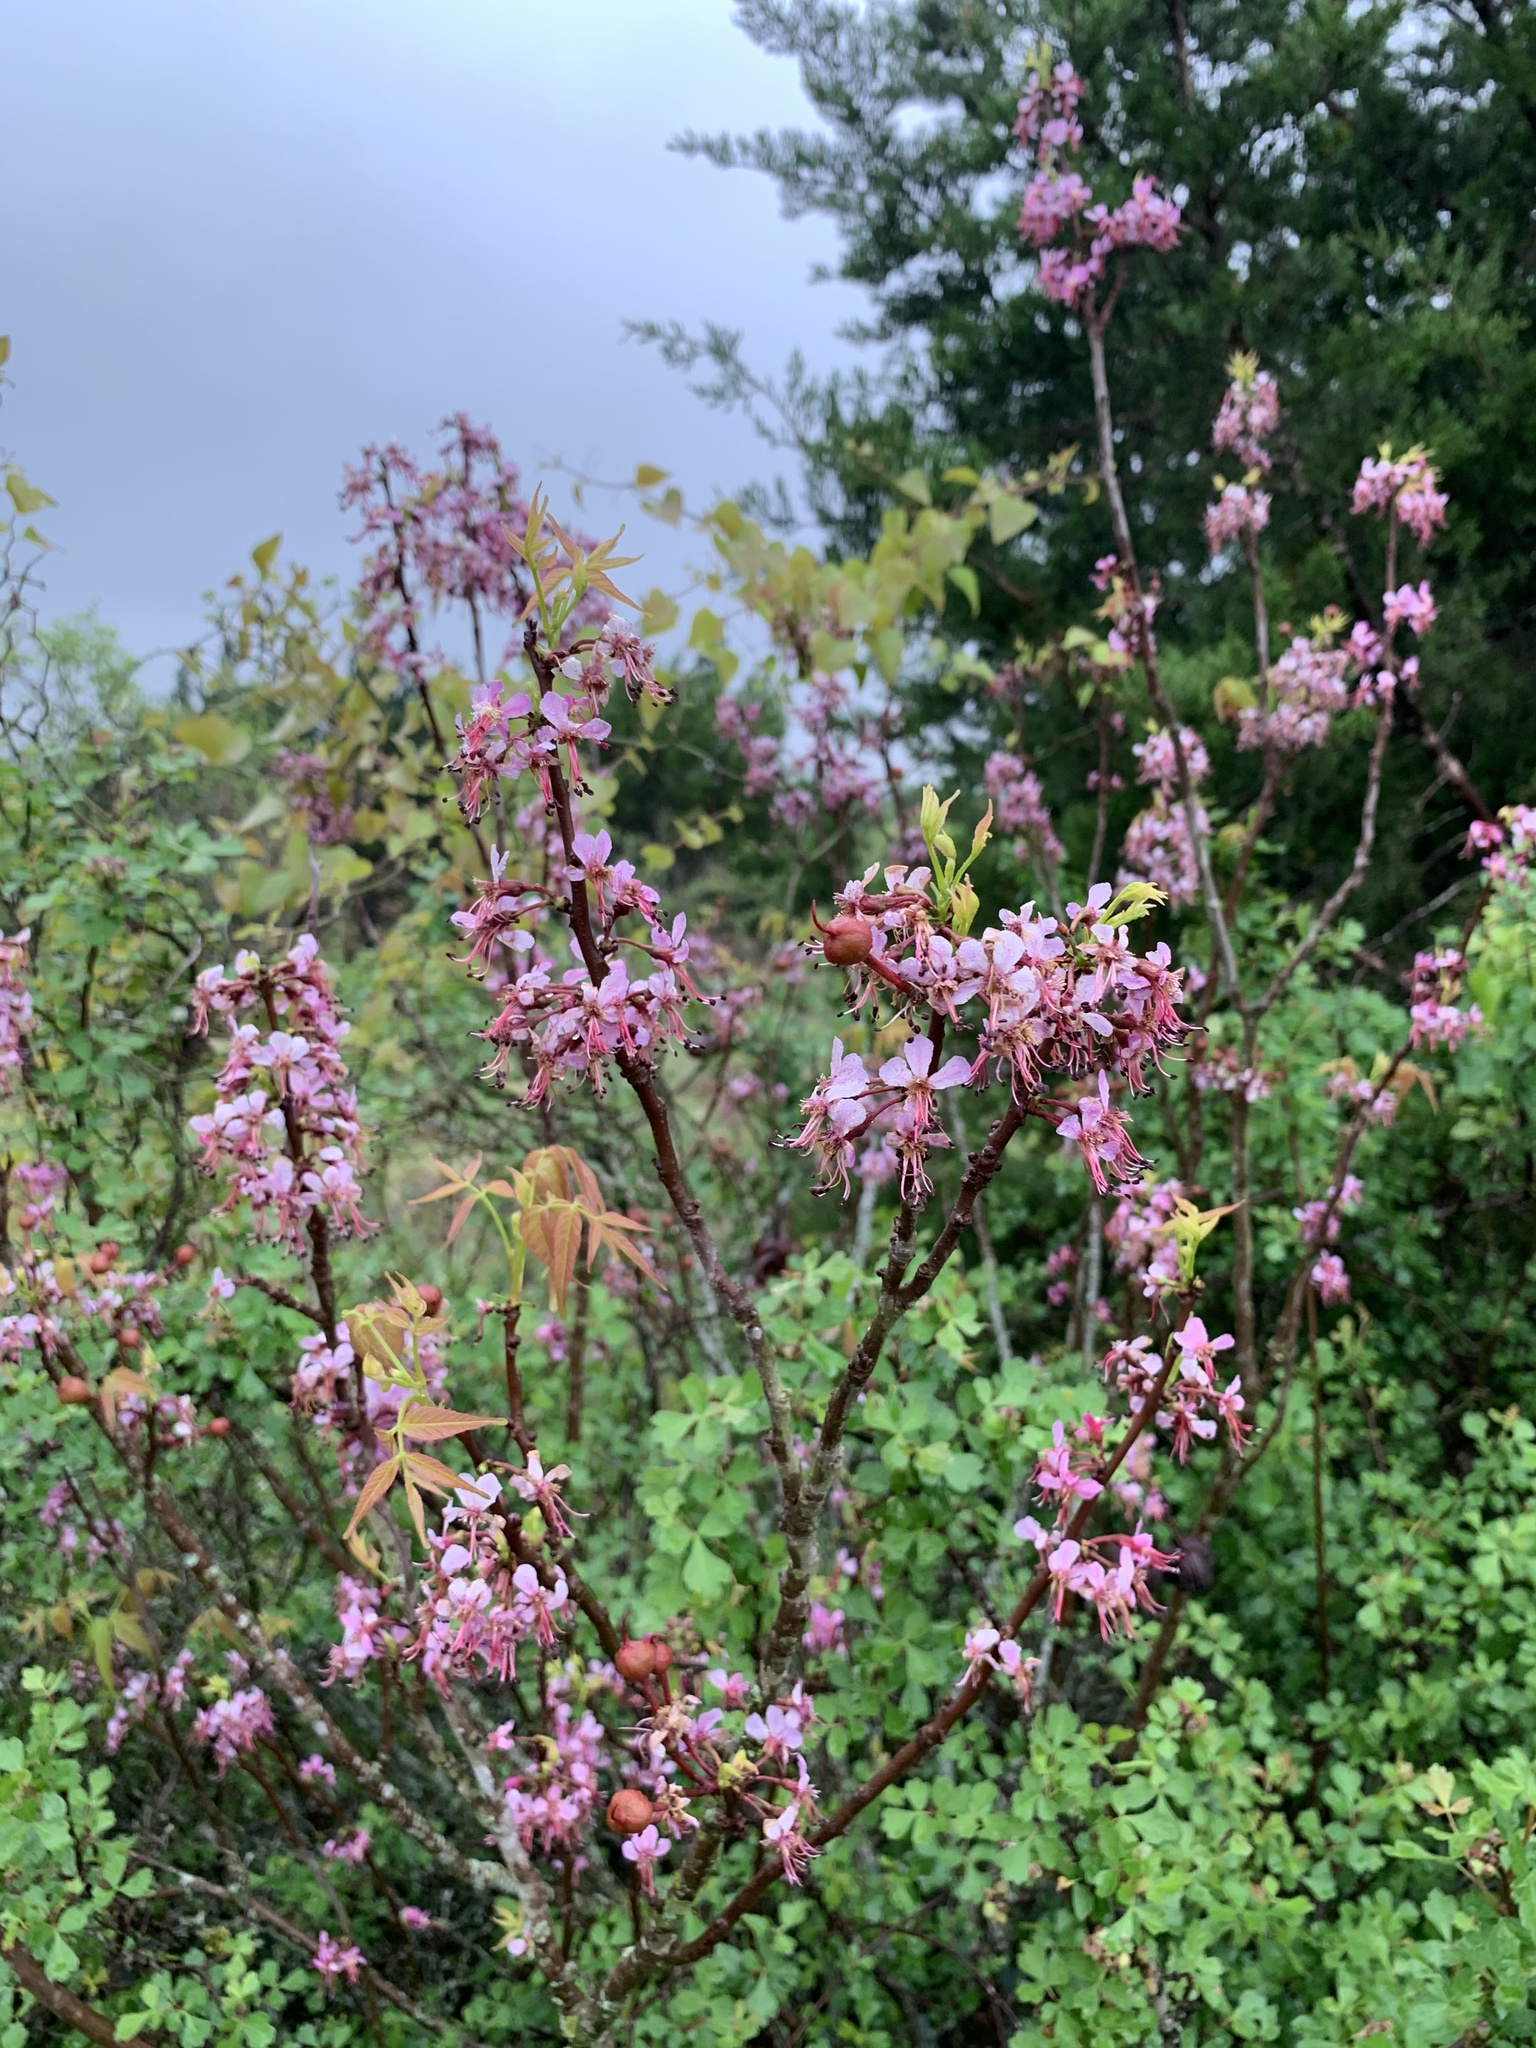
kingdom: Plantae
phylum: Tracheophyta
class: Magnoliopsida
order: Sapindales
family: Sapindaceae
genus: Ungnadia
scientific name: Ungnadia speciosa
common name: Texas-buckeye
